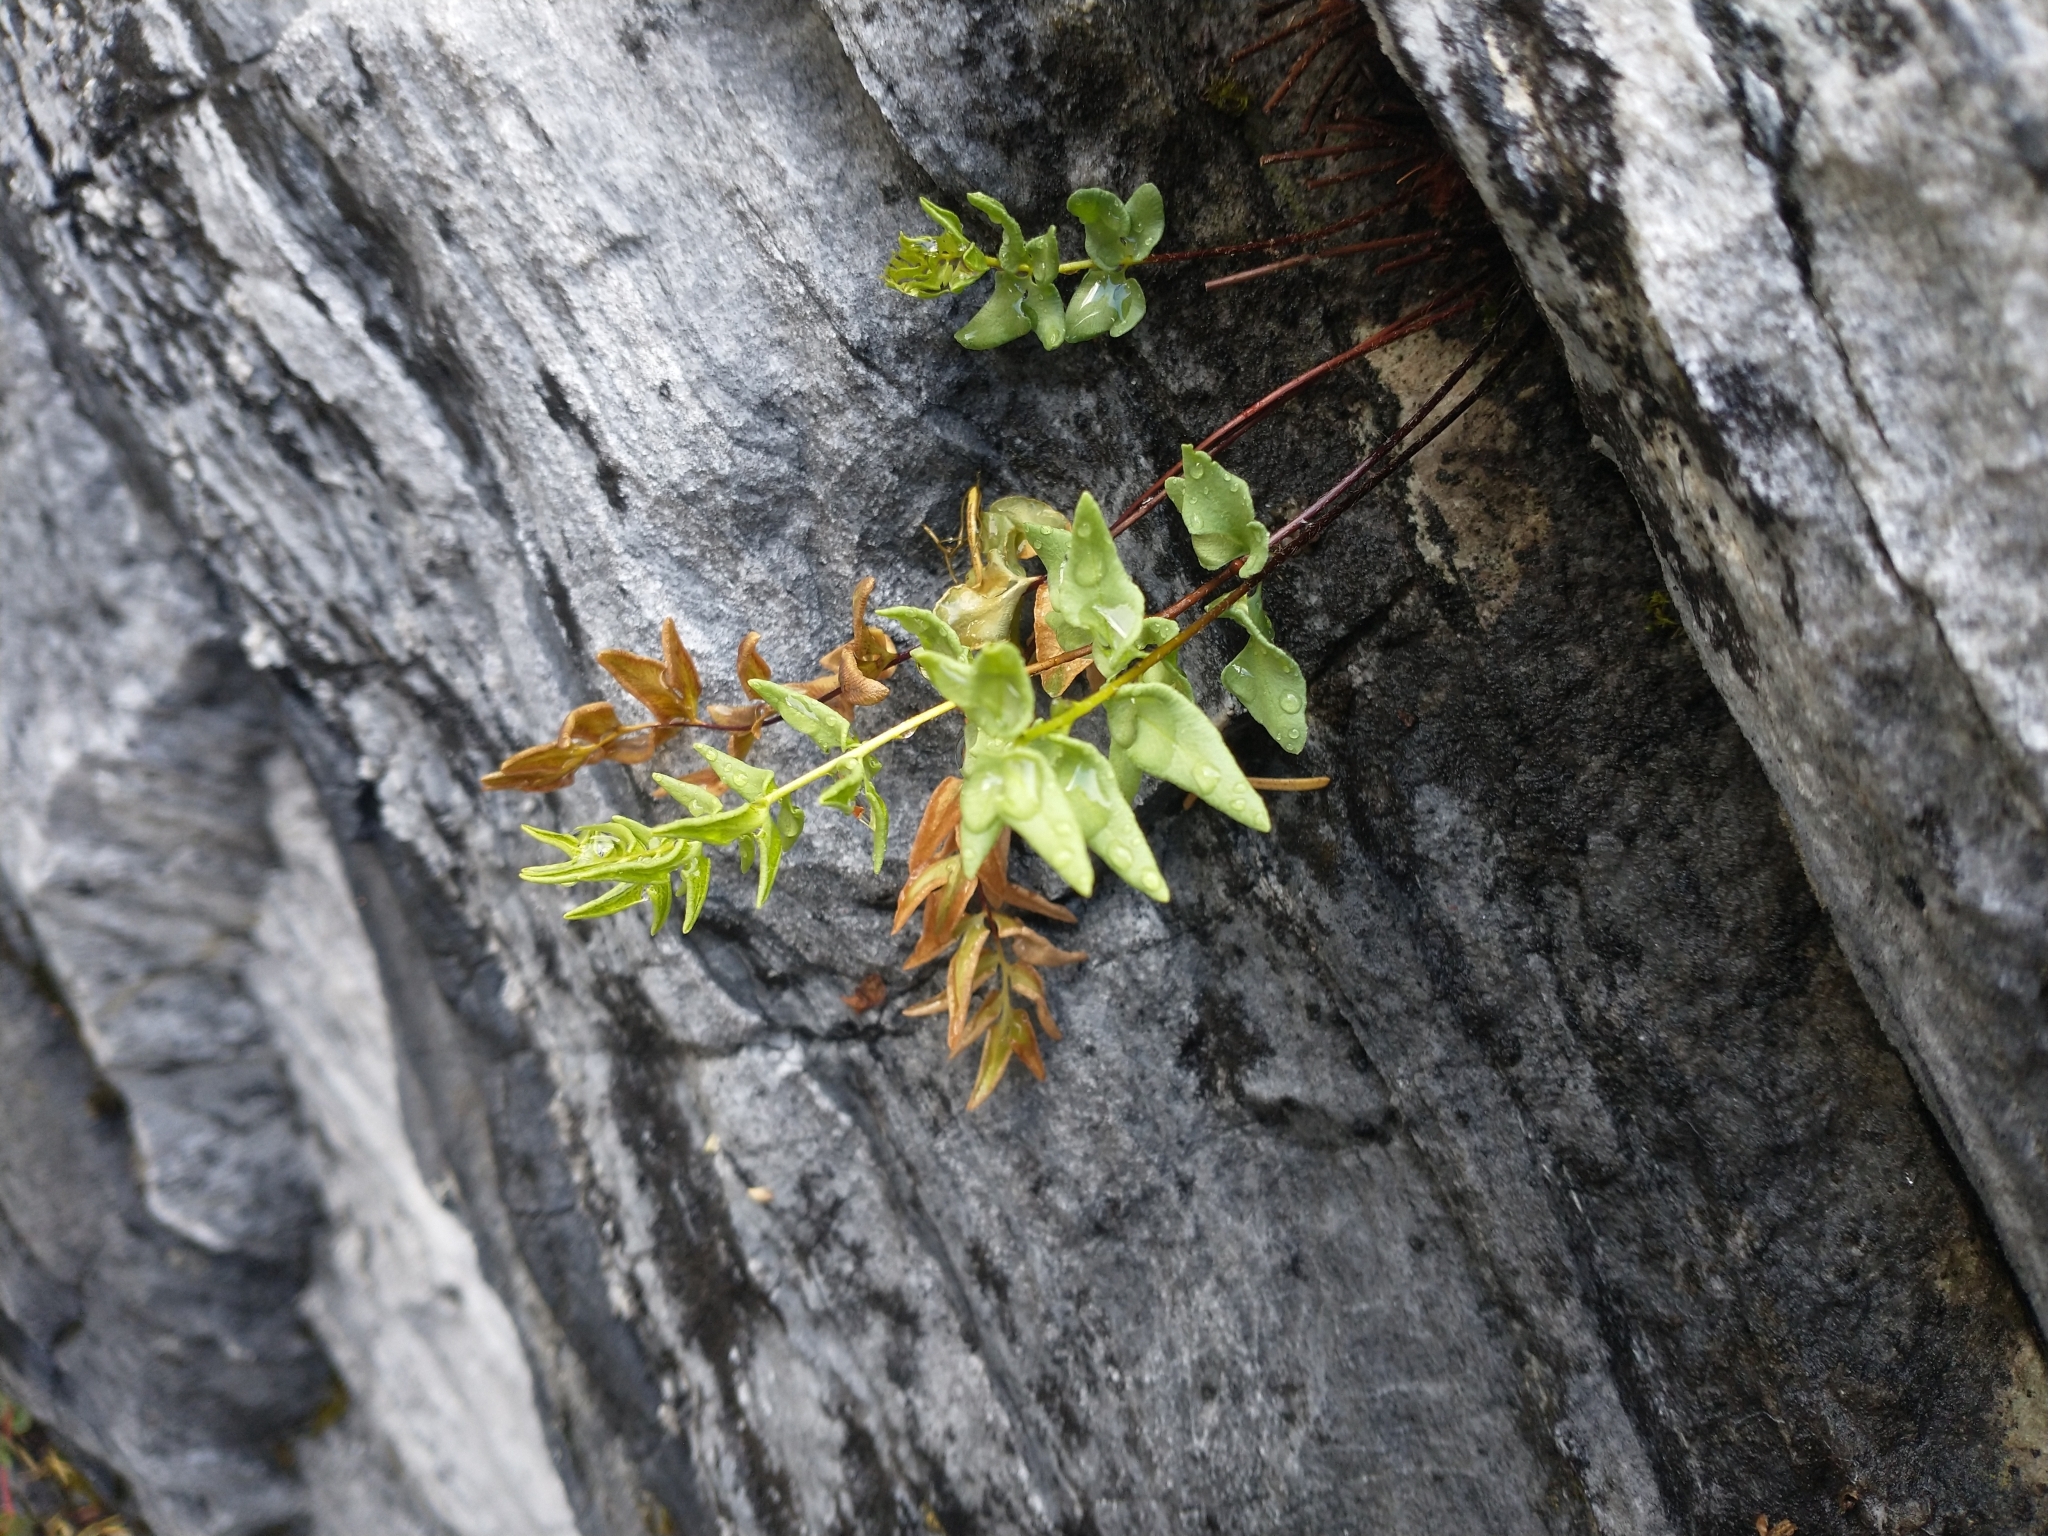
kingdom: Plantae
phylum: Tracheophyta
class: Polypodiopsida
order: Polypodiales
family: Pteridaceae
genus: Pellaea
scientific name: Pellaea breweri
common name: Brewer's cliffbrake
